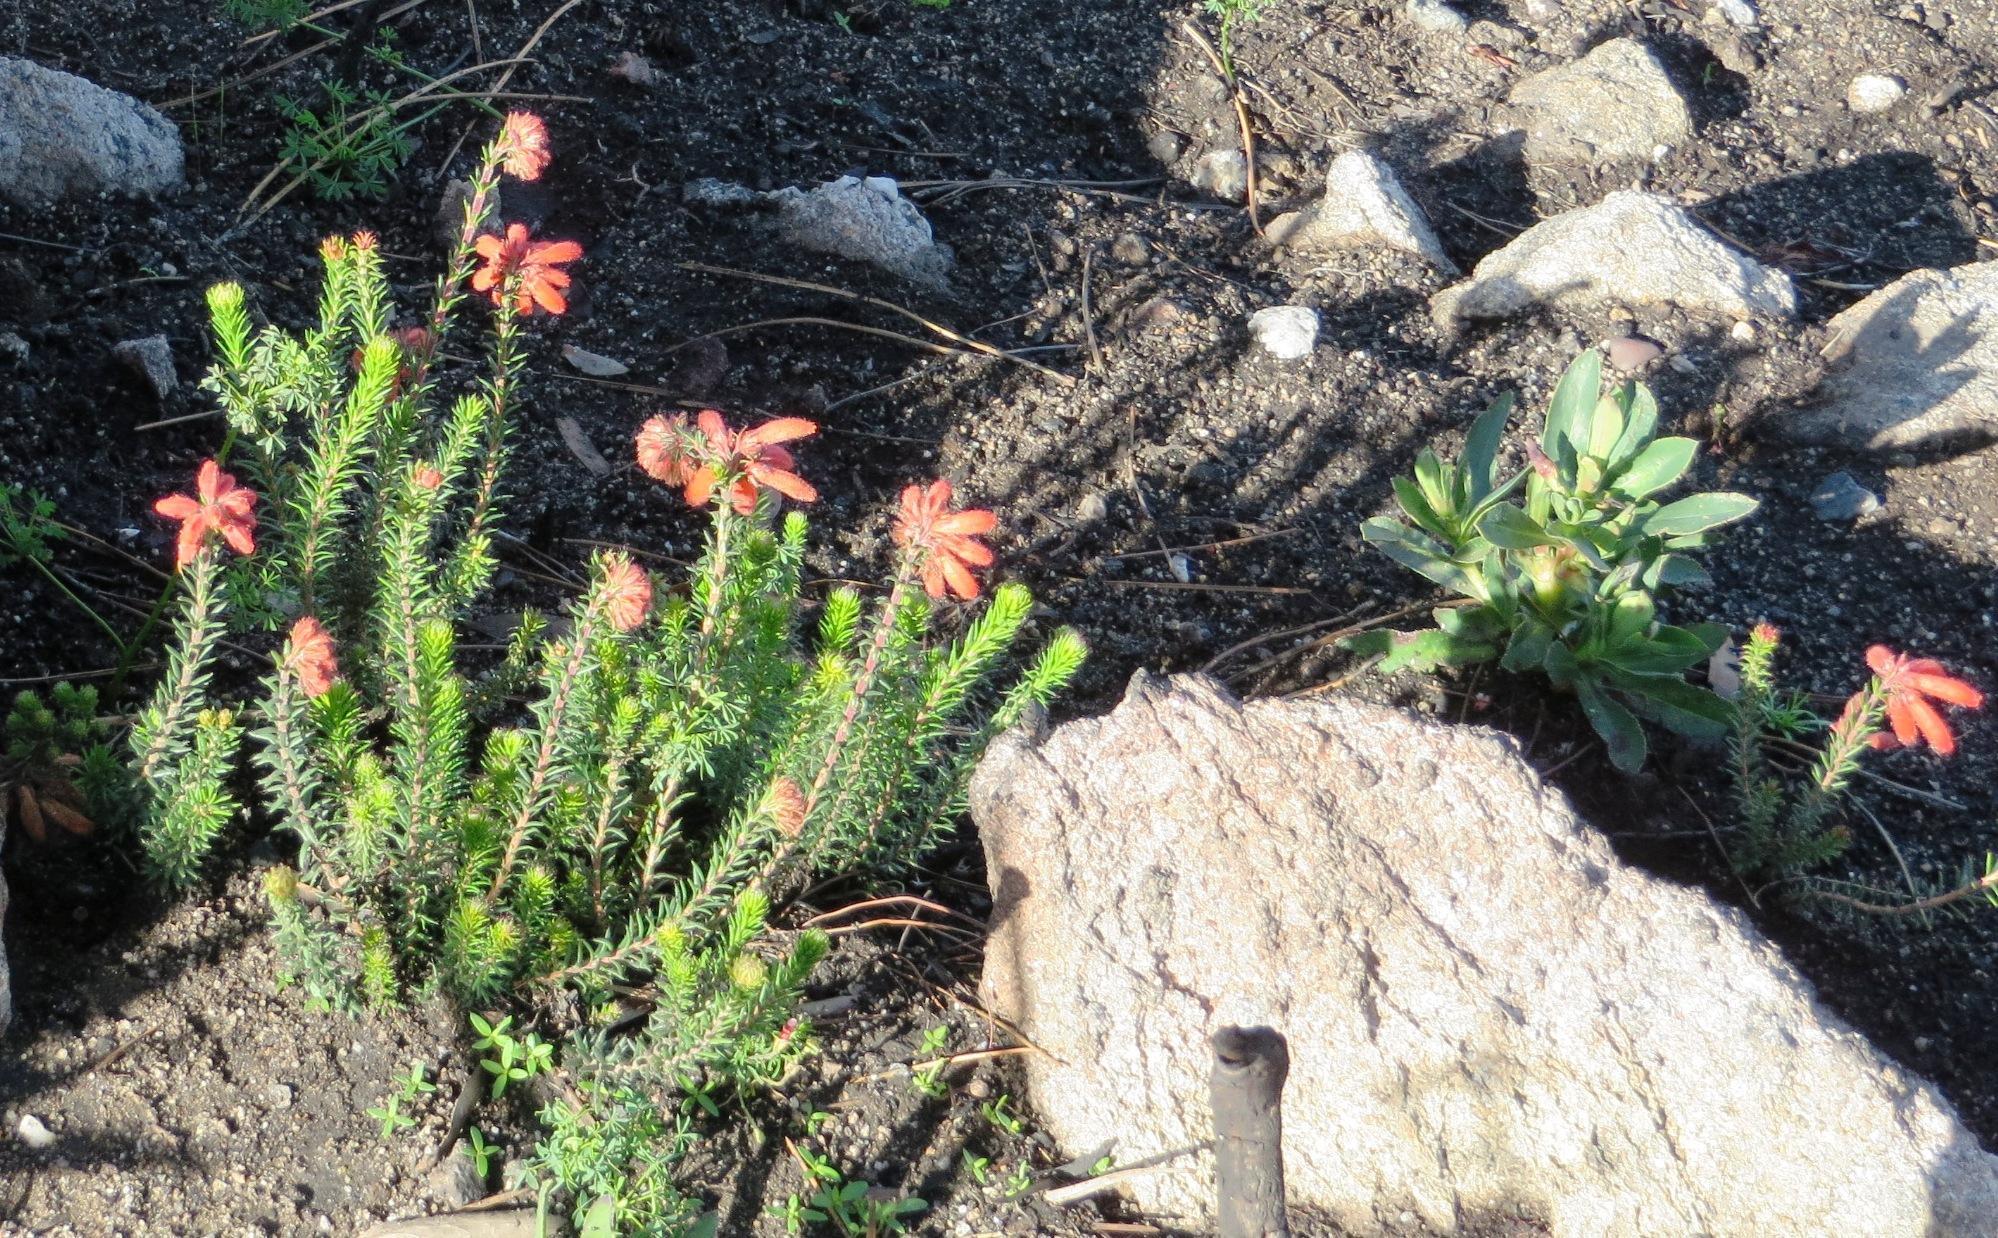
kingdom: Plantae
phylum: Tracheophyta
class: Magnoliopsida
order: Ericales
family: Ericaceae
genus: Erica
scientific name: Erica cerinthoides
